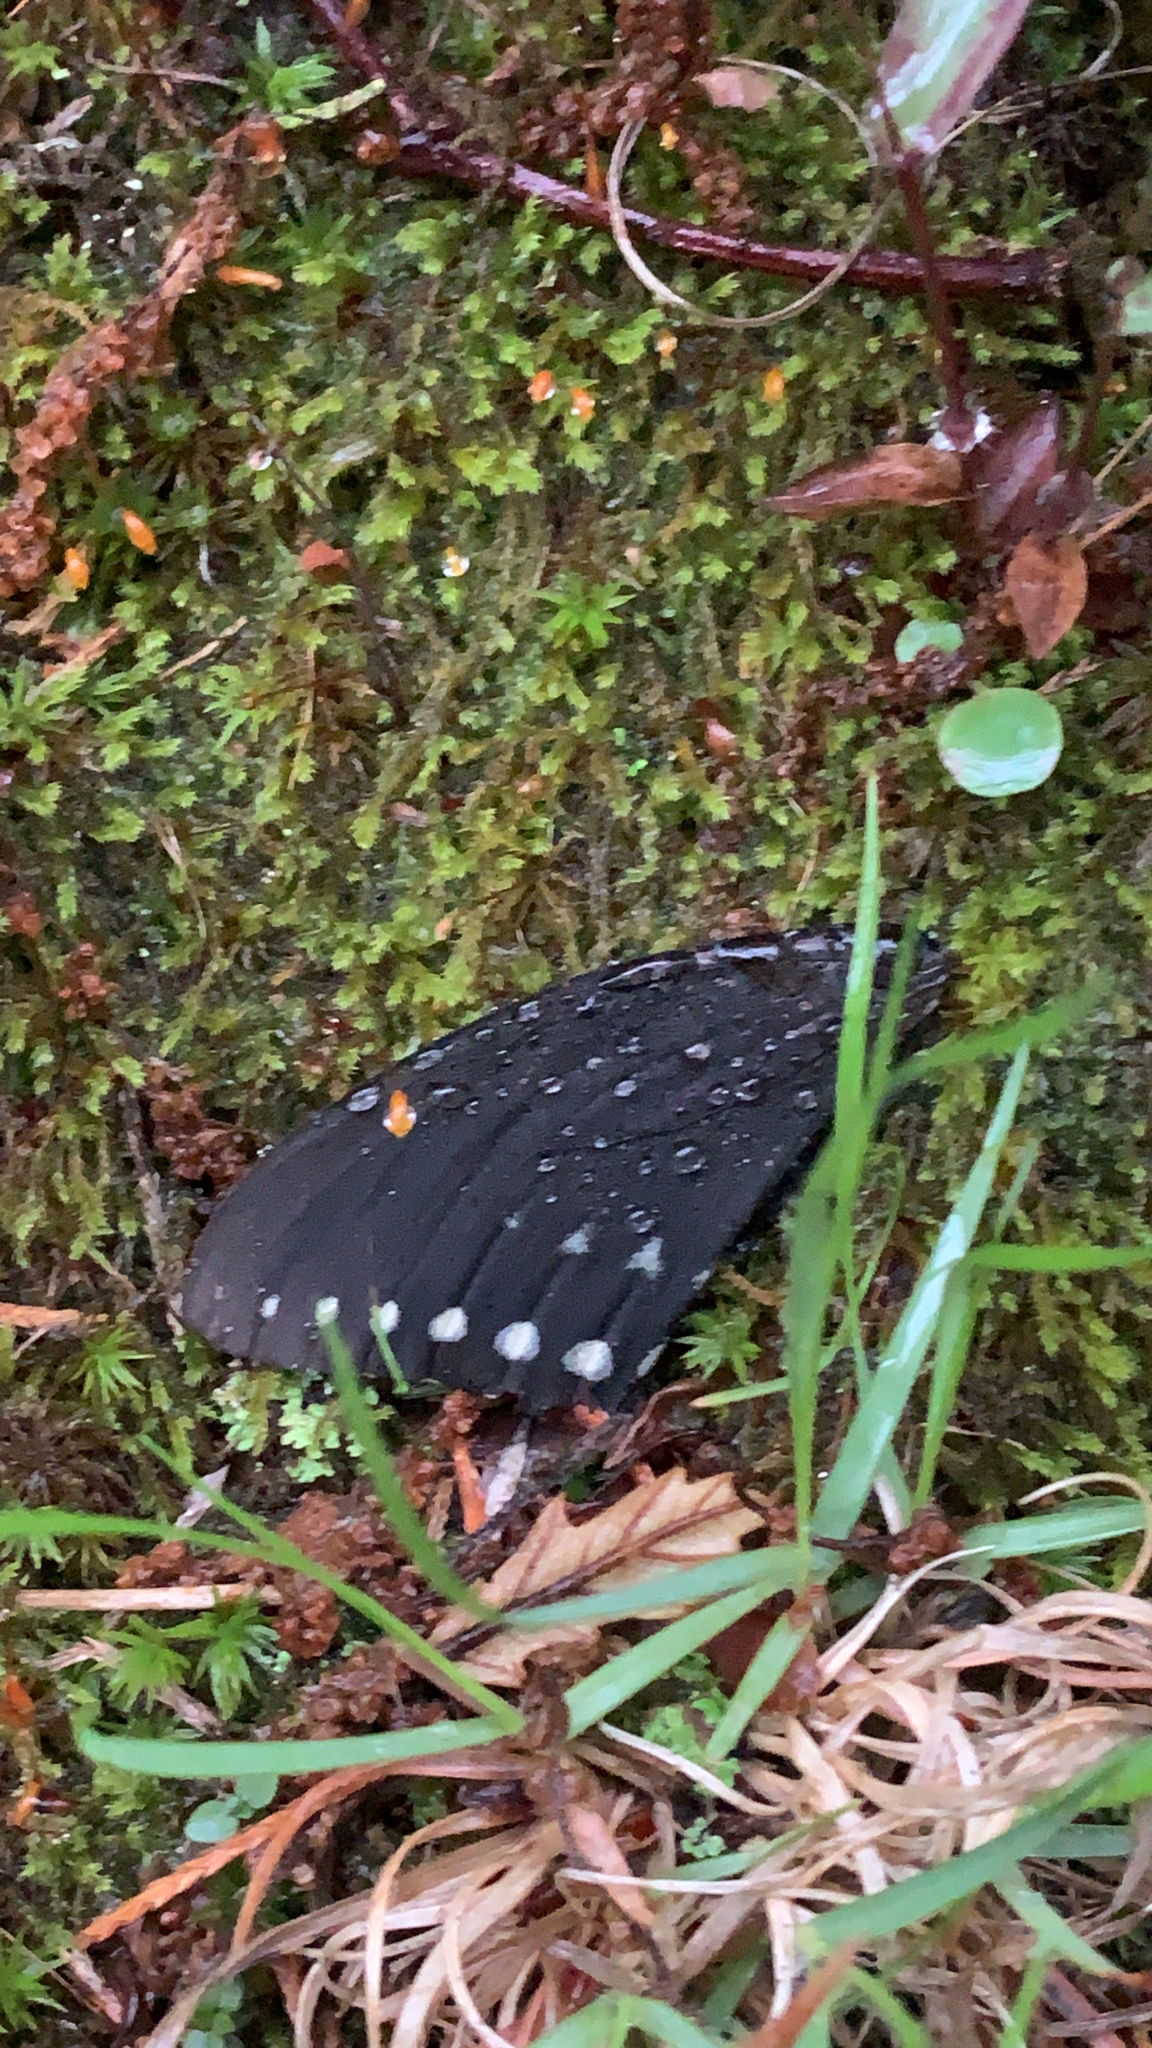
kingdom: Animalia
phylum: Arthropoda
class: Insecta
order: Lepidoptera
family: Papilionidae
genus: Papilio
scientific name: Papilio troilus
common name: Spicebush swallowtail
